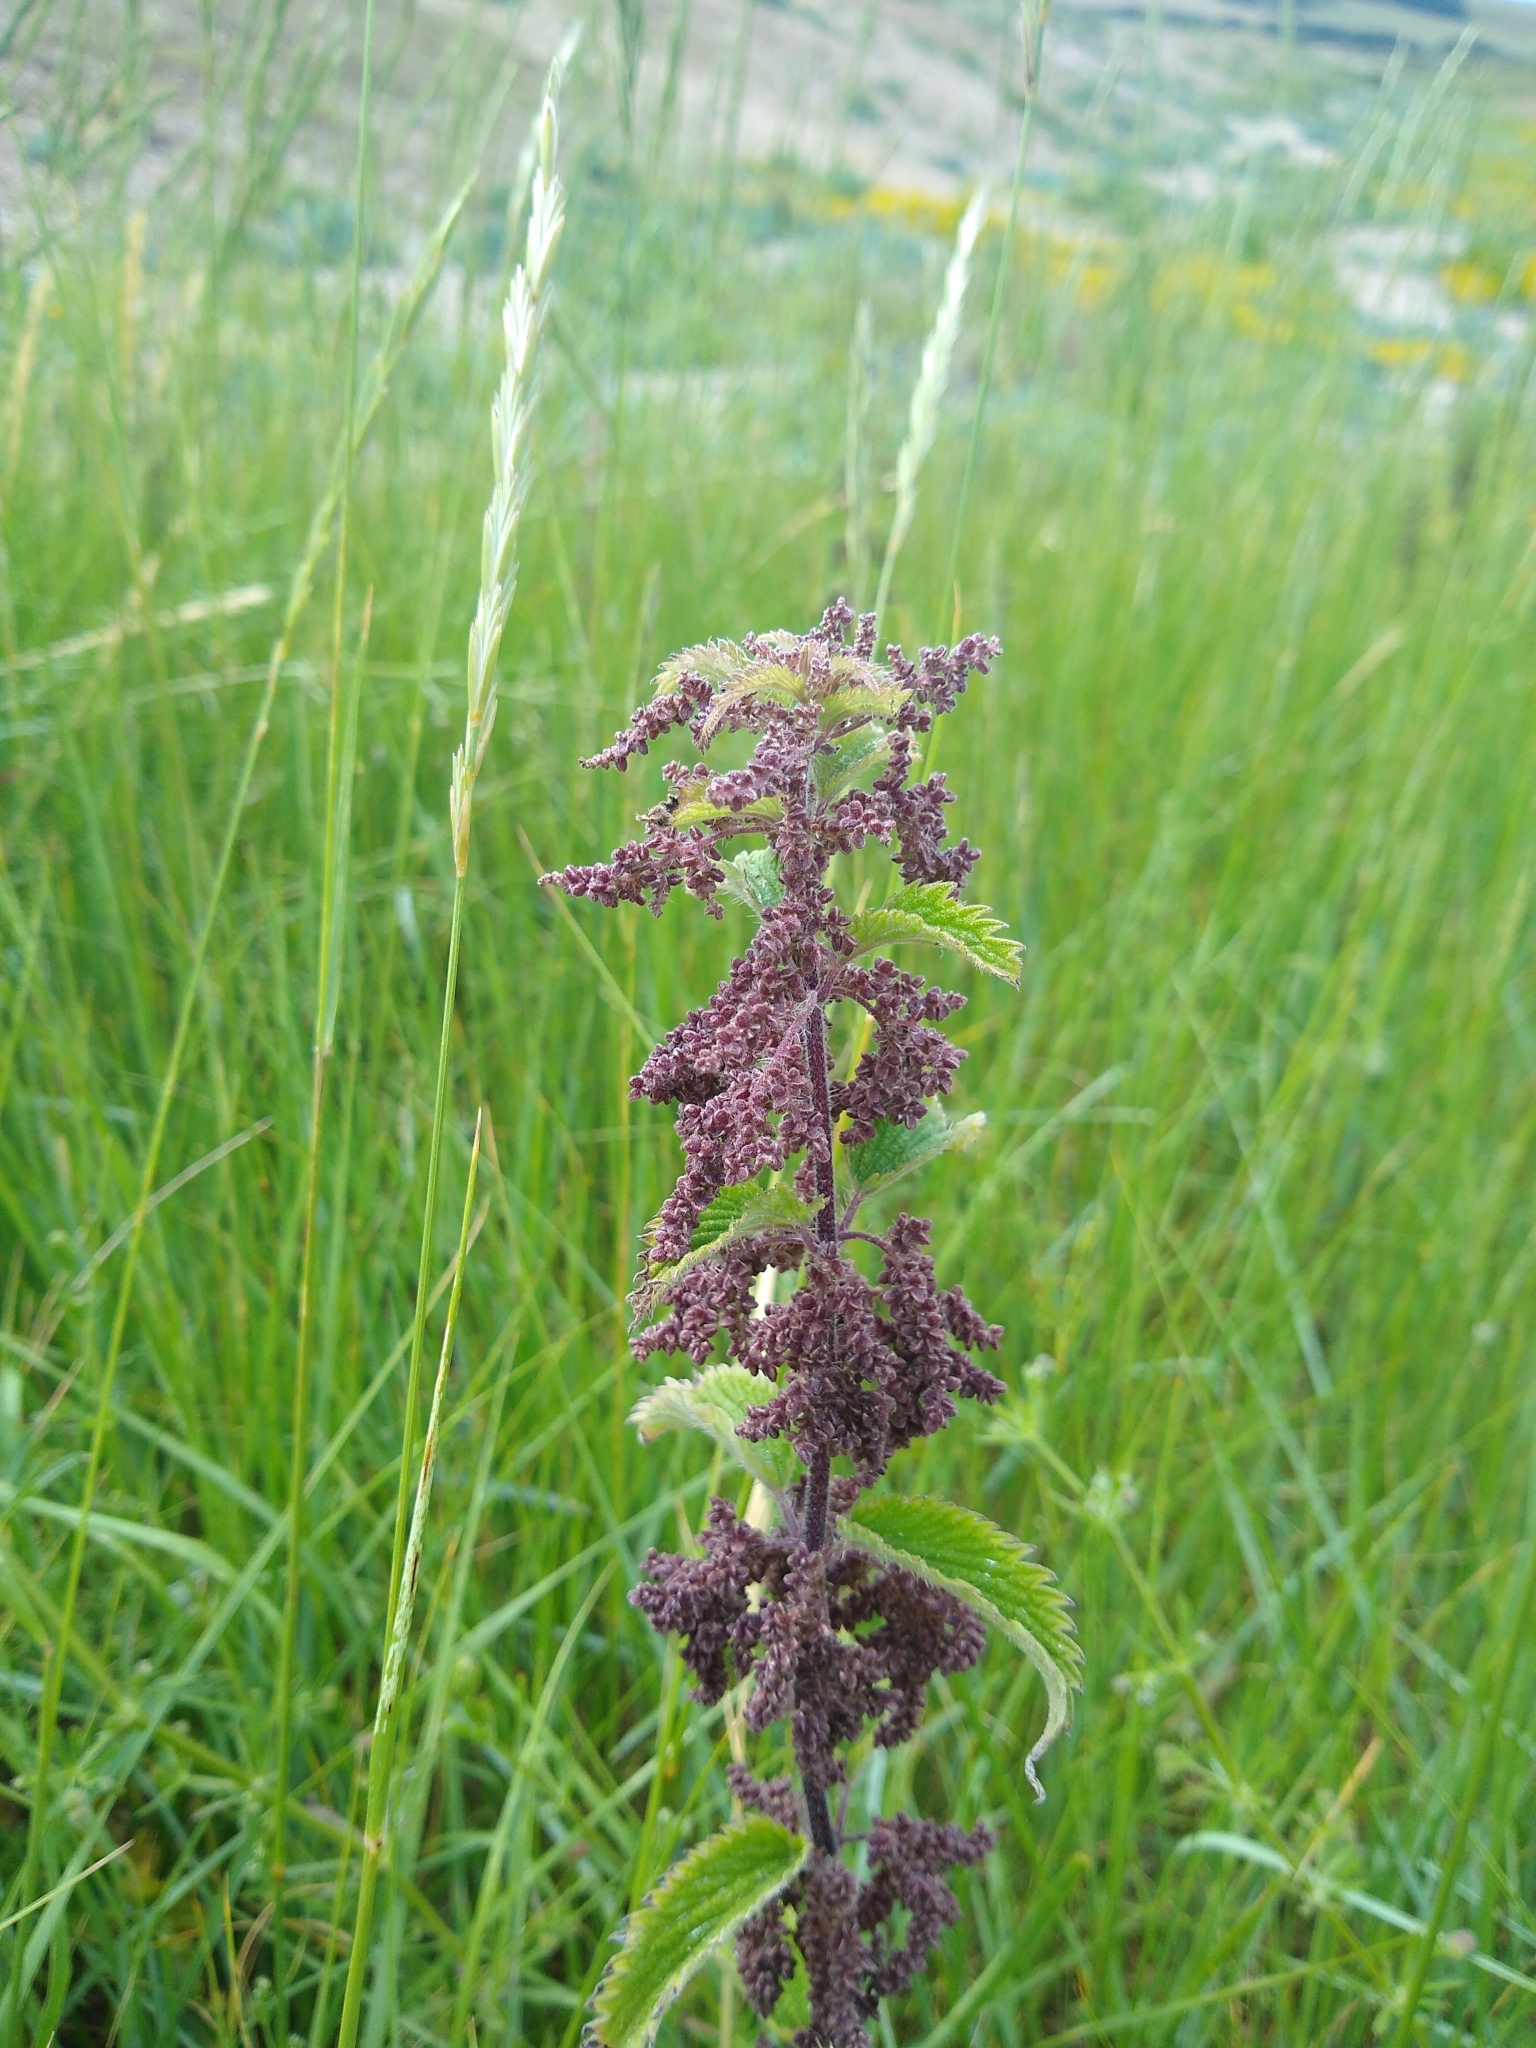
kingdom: Plantae
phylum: Tracheophyta
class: Magnoliopsida
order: Rosales
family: Urticaceae
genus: Urtica
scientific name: Urtica dioica
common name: Common nettle
